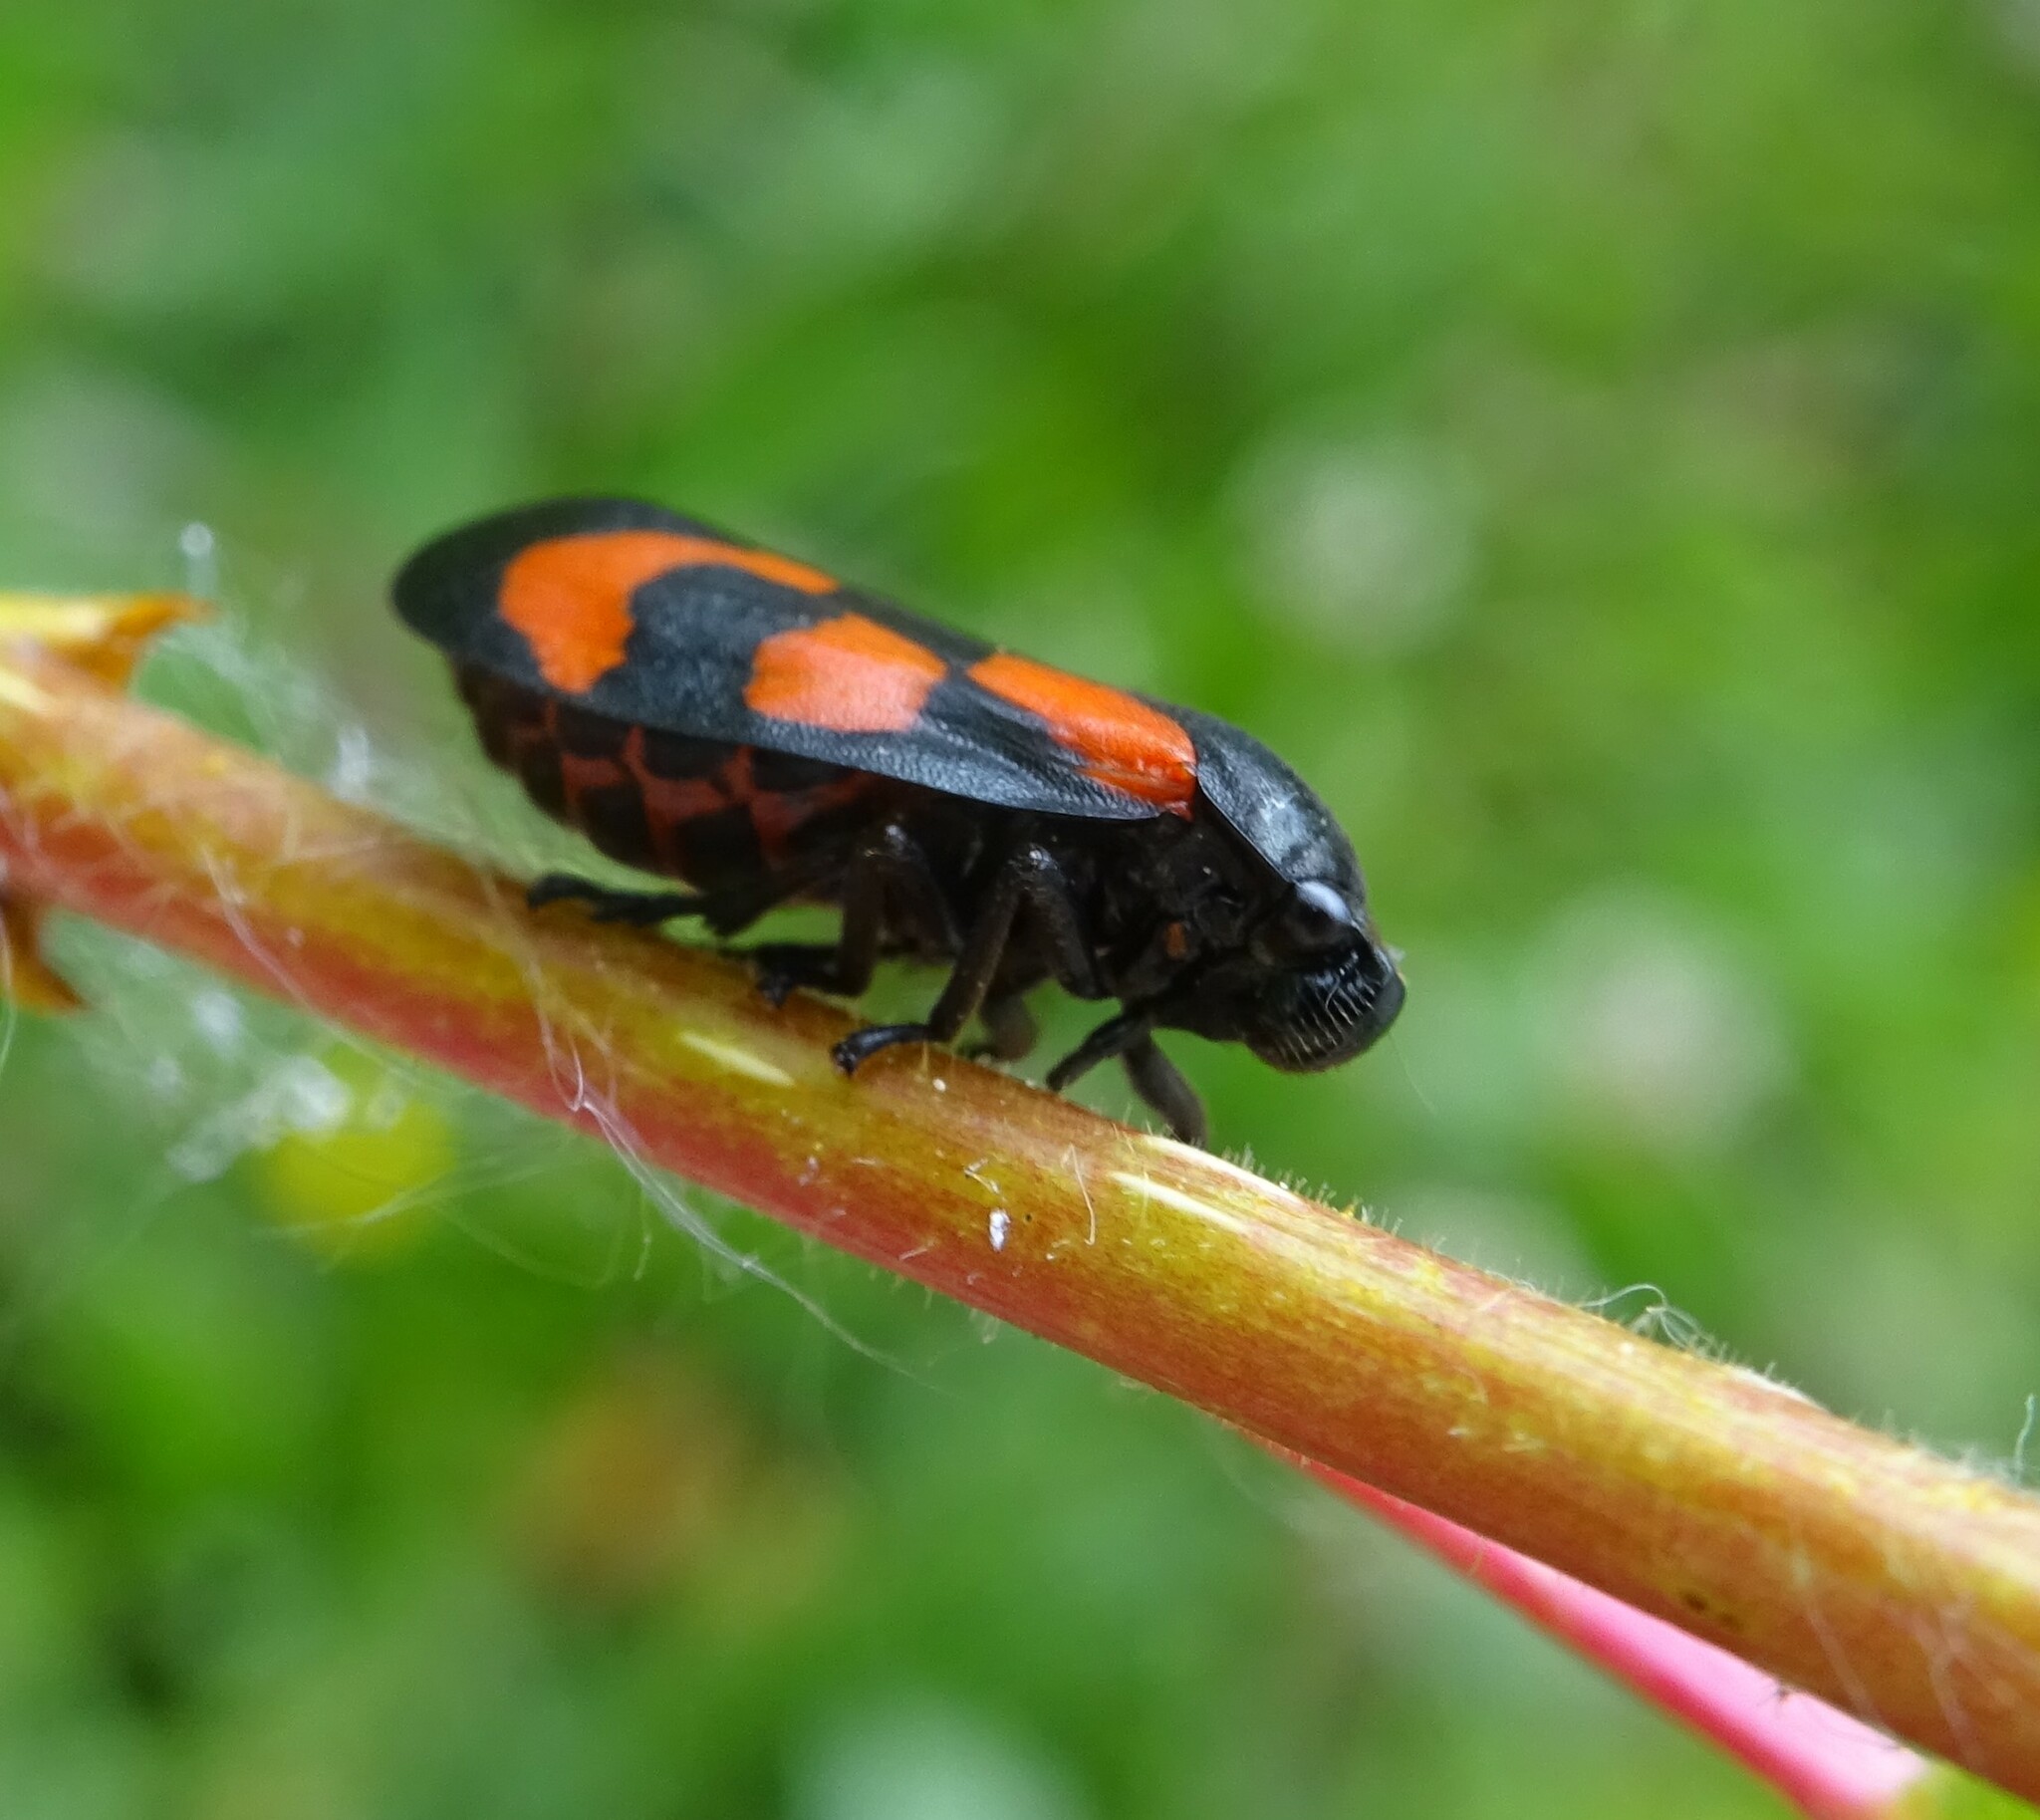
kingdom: Animalia
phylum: Arthropoda
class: Insecta
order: Hemiptera
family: Cercopidae
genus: Cercopis
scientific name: Cercopis vulnerata
